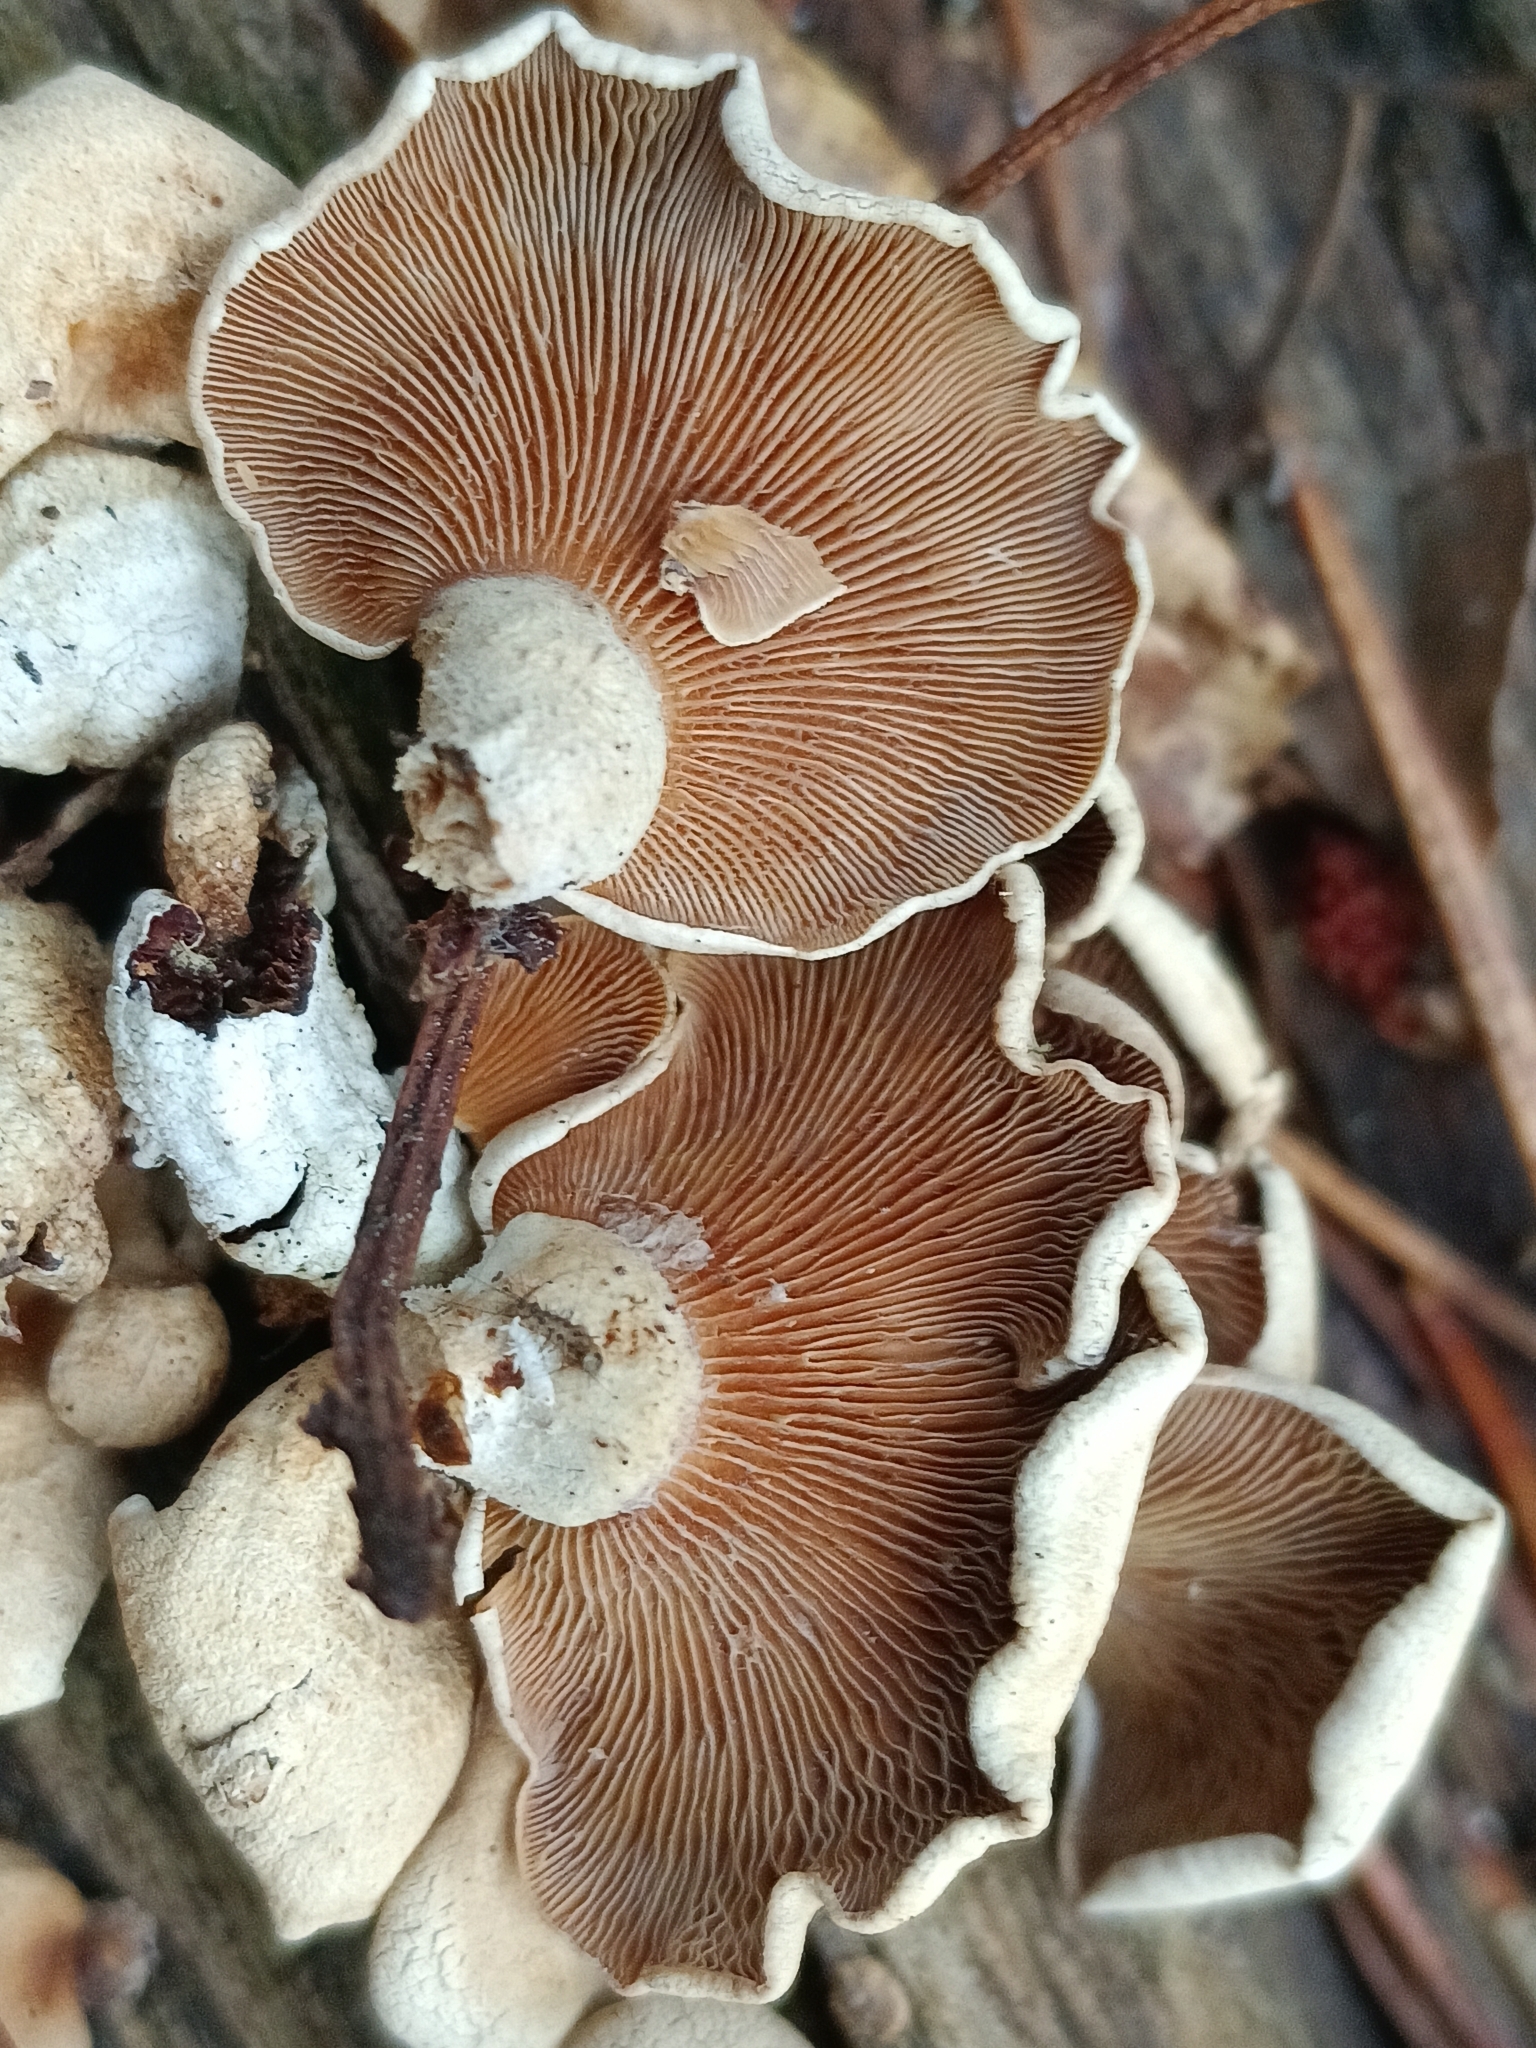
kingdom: Fungi
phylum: Basidiomycota
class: Agaricomycetes
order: Agaricales
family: Mycenaceae
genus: Panellus
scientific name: Panellus stipticus
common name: Bitter oysterling
